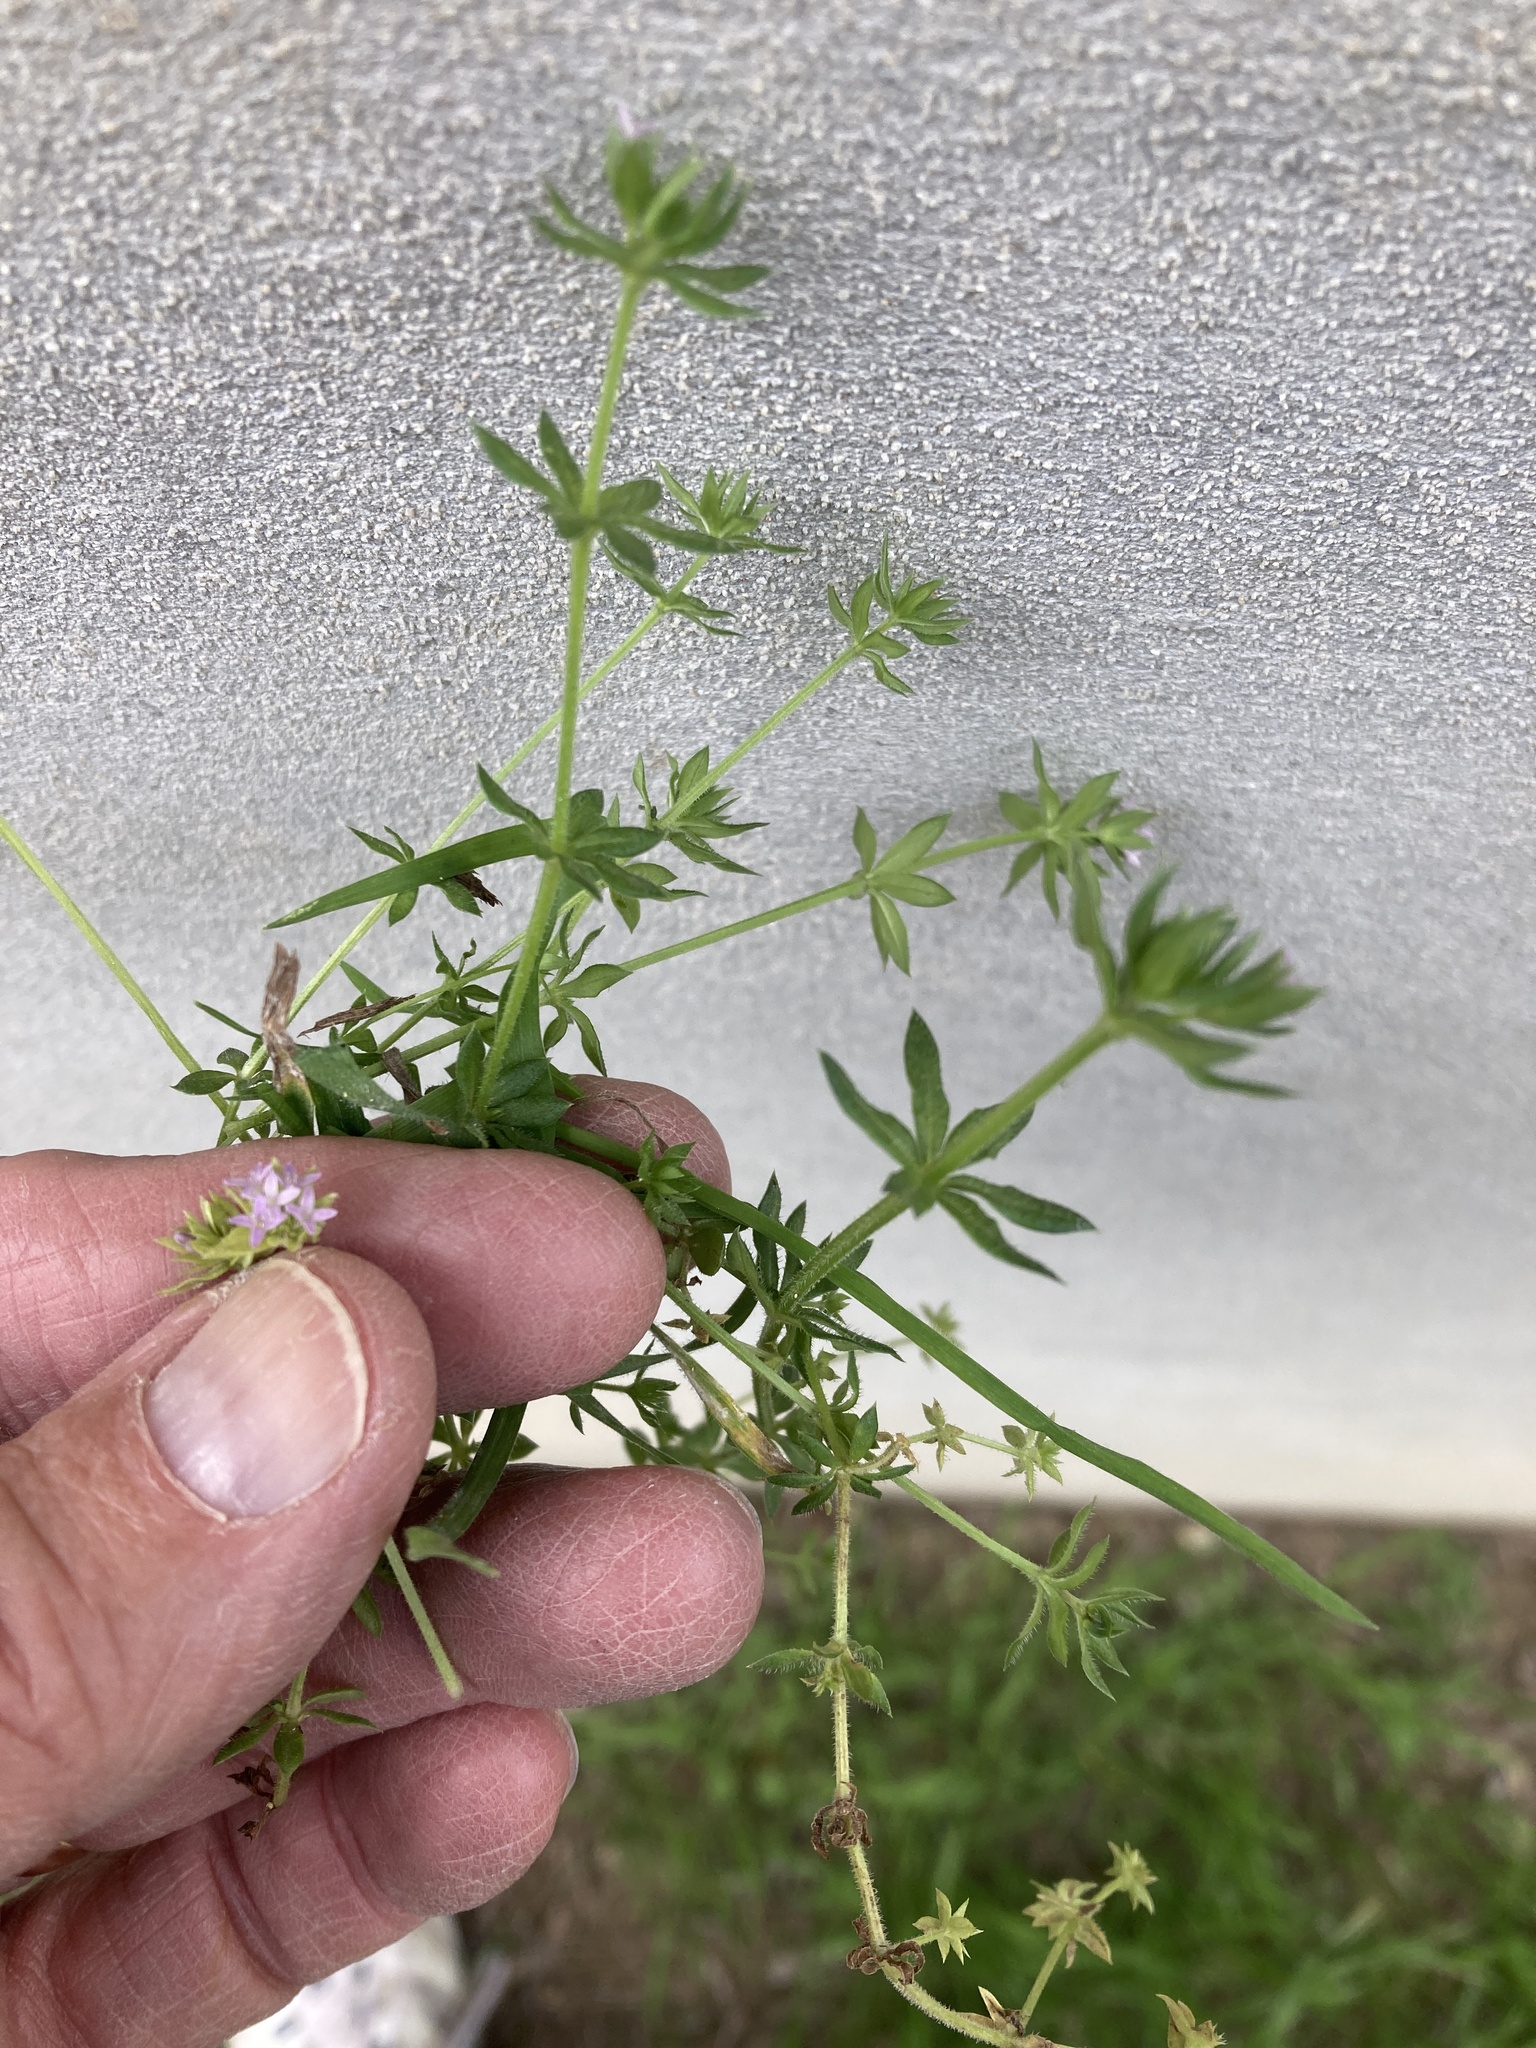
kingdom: Plantae
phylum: Tracheophyta
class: Magnoliopsida
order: Gentianales
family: Rubiaceae
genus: Sherardia
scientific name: Sherardia arvensis
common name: Field madder
